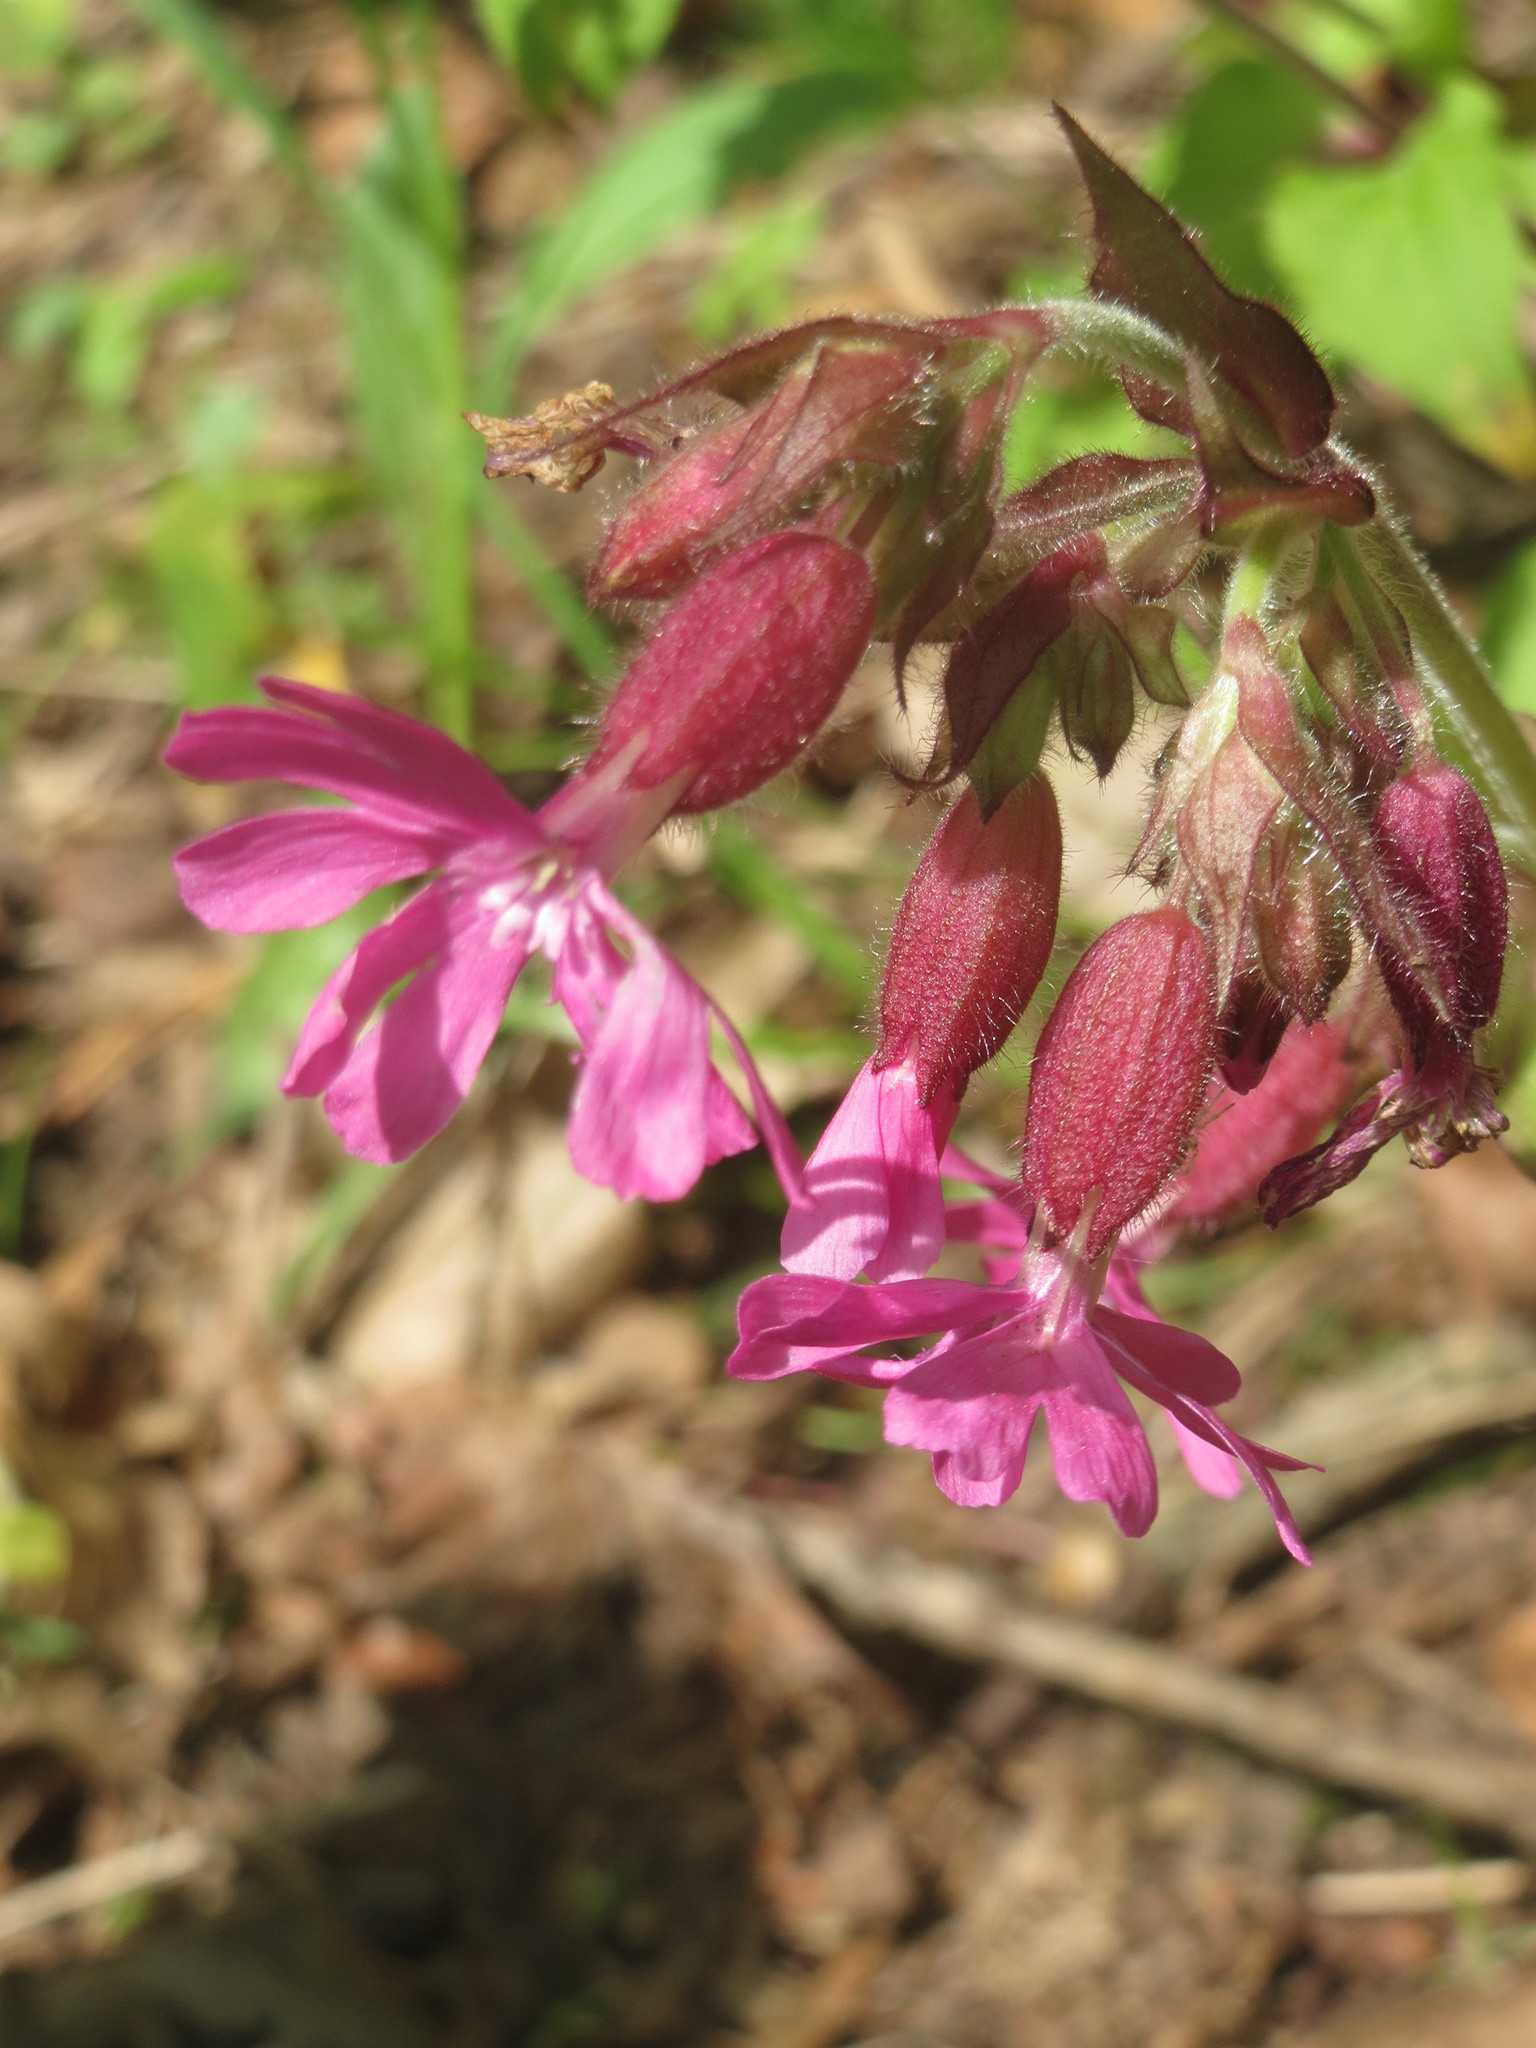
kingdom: Plantae
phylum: Tracheophyta
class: Magnoliopsida
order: Caryophyllales
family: Caryophyllaceae
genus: Silene
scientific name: Silene dioica
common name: Red campion
